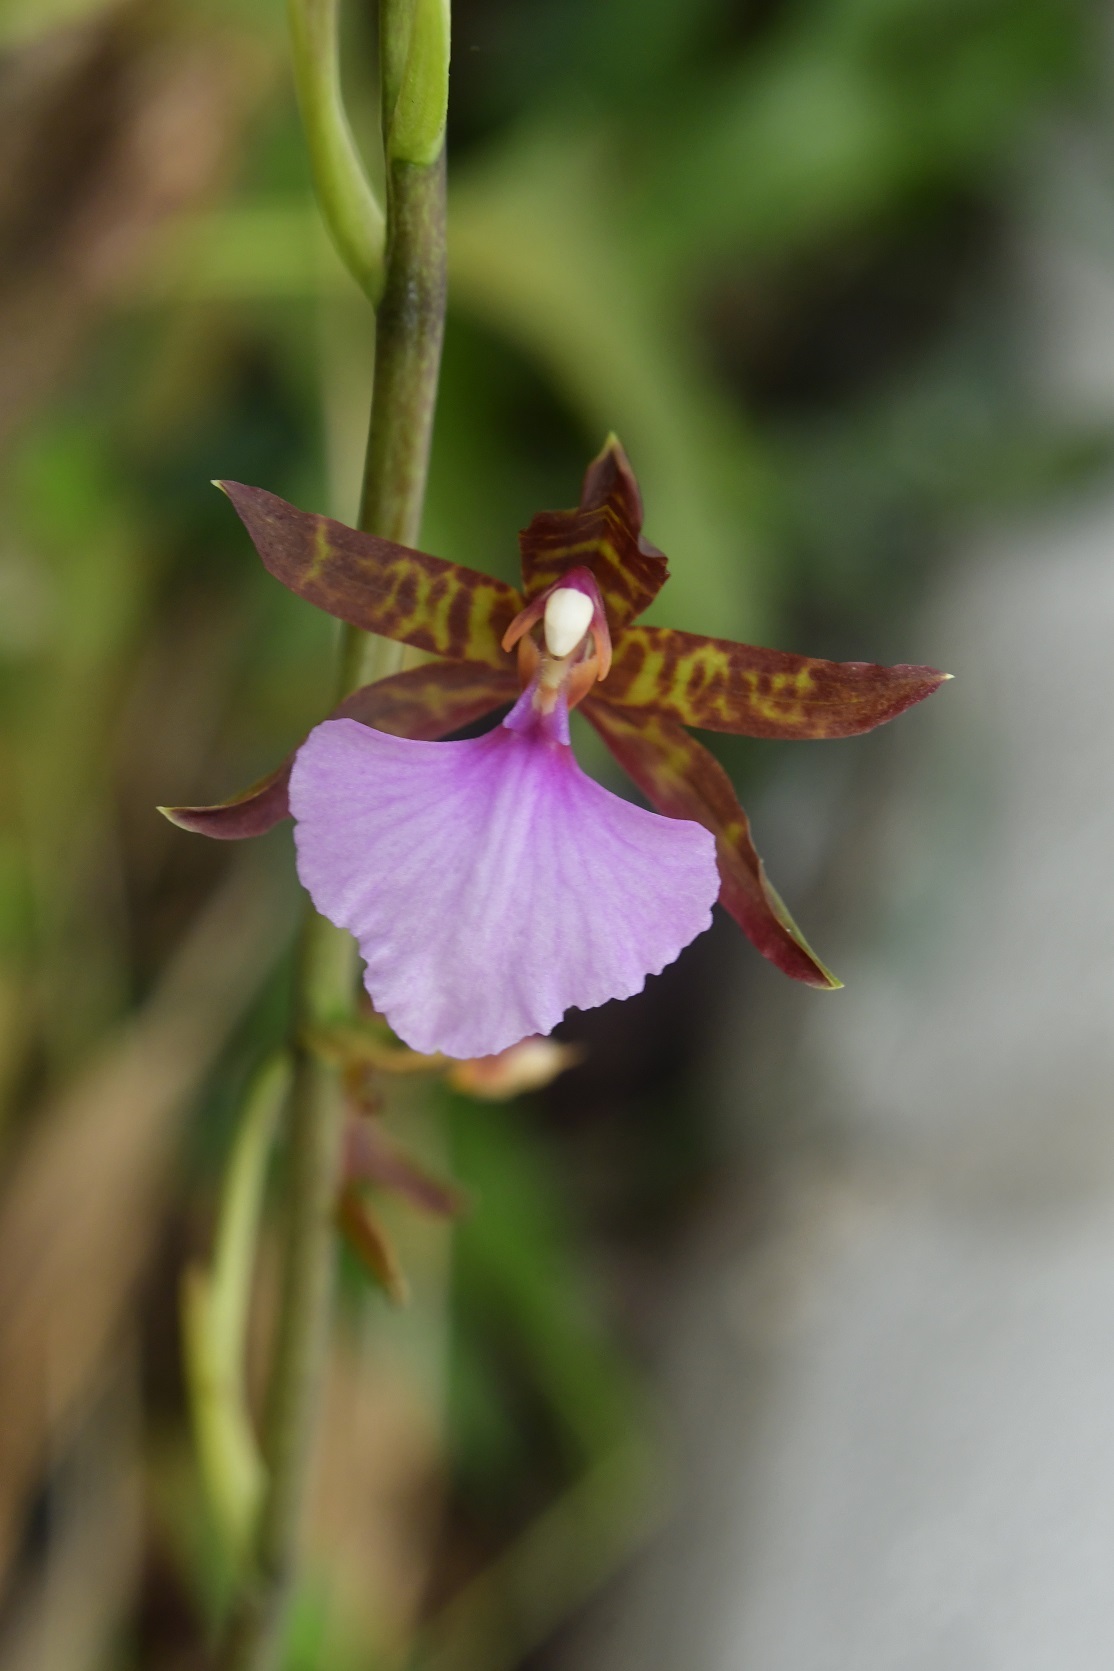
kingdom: Plantae
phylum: Tracheophyta
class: Liliopsida
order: Asparagales
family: Orchidaceae
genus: Rhynchostele
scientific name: Rhynchostele bictoniensis
